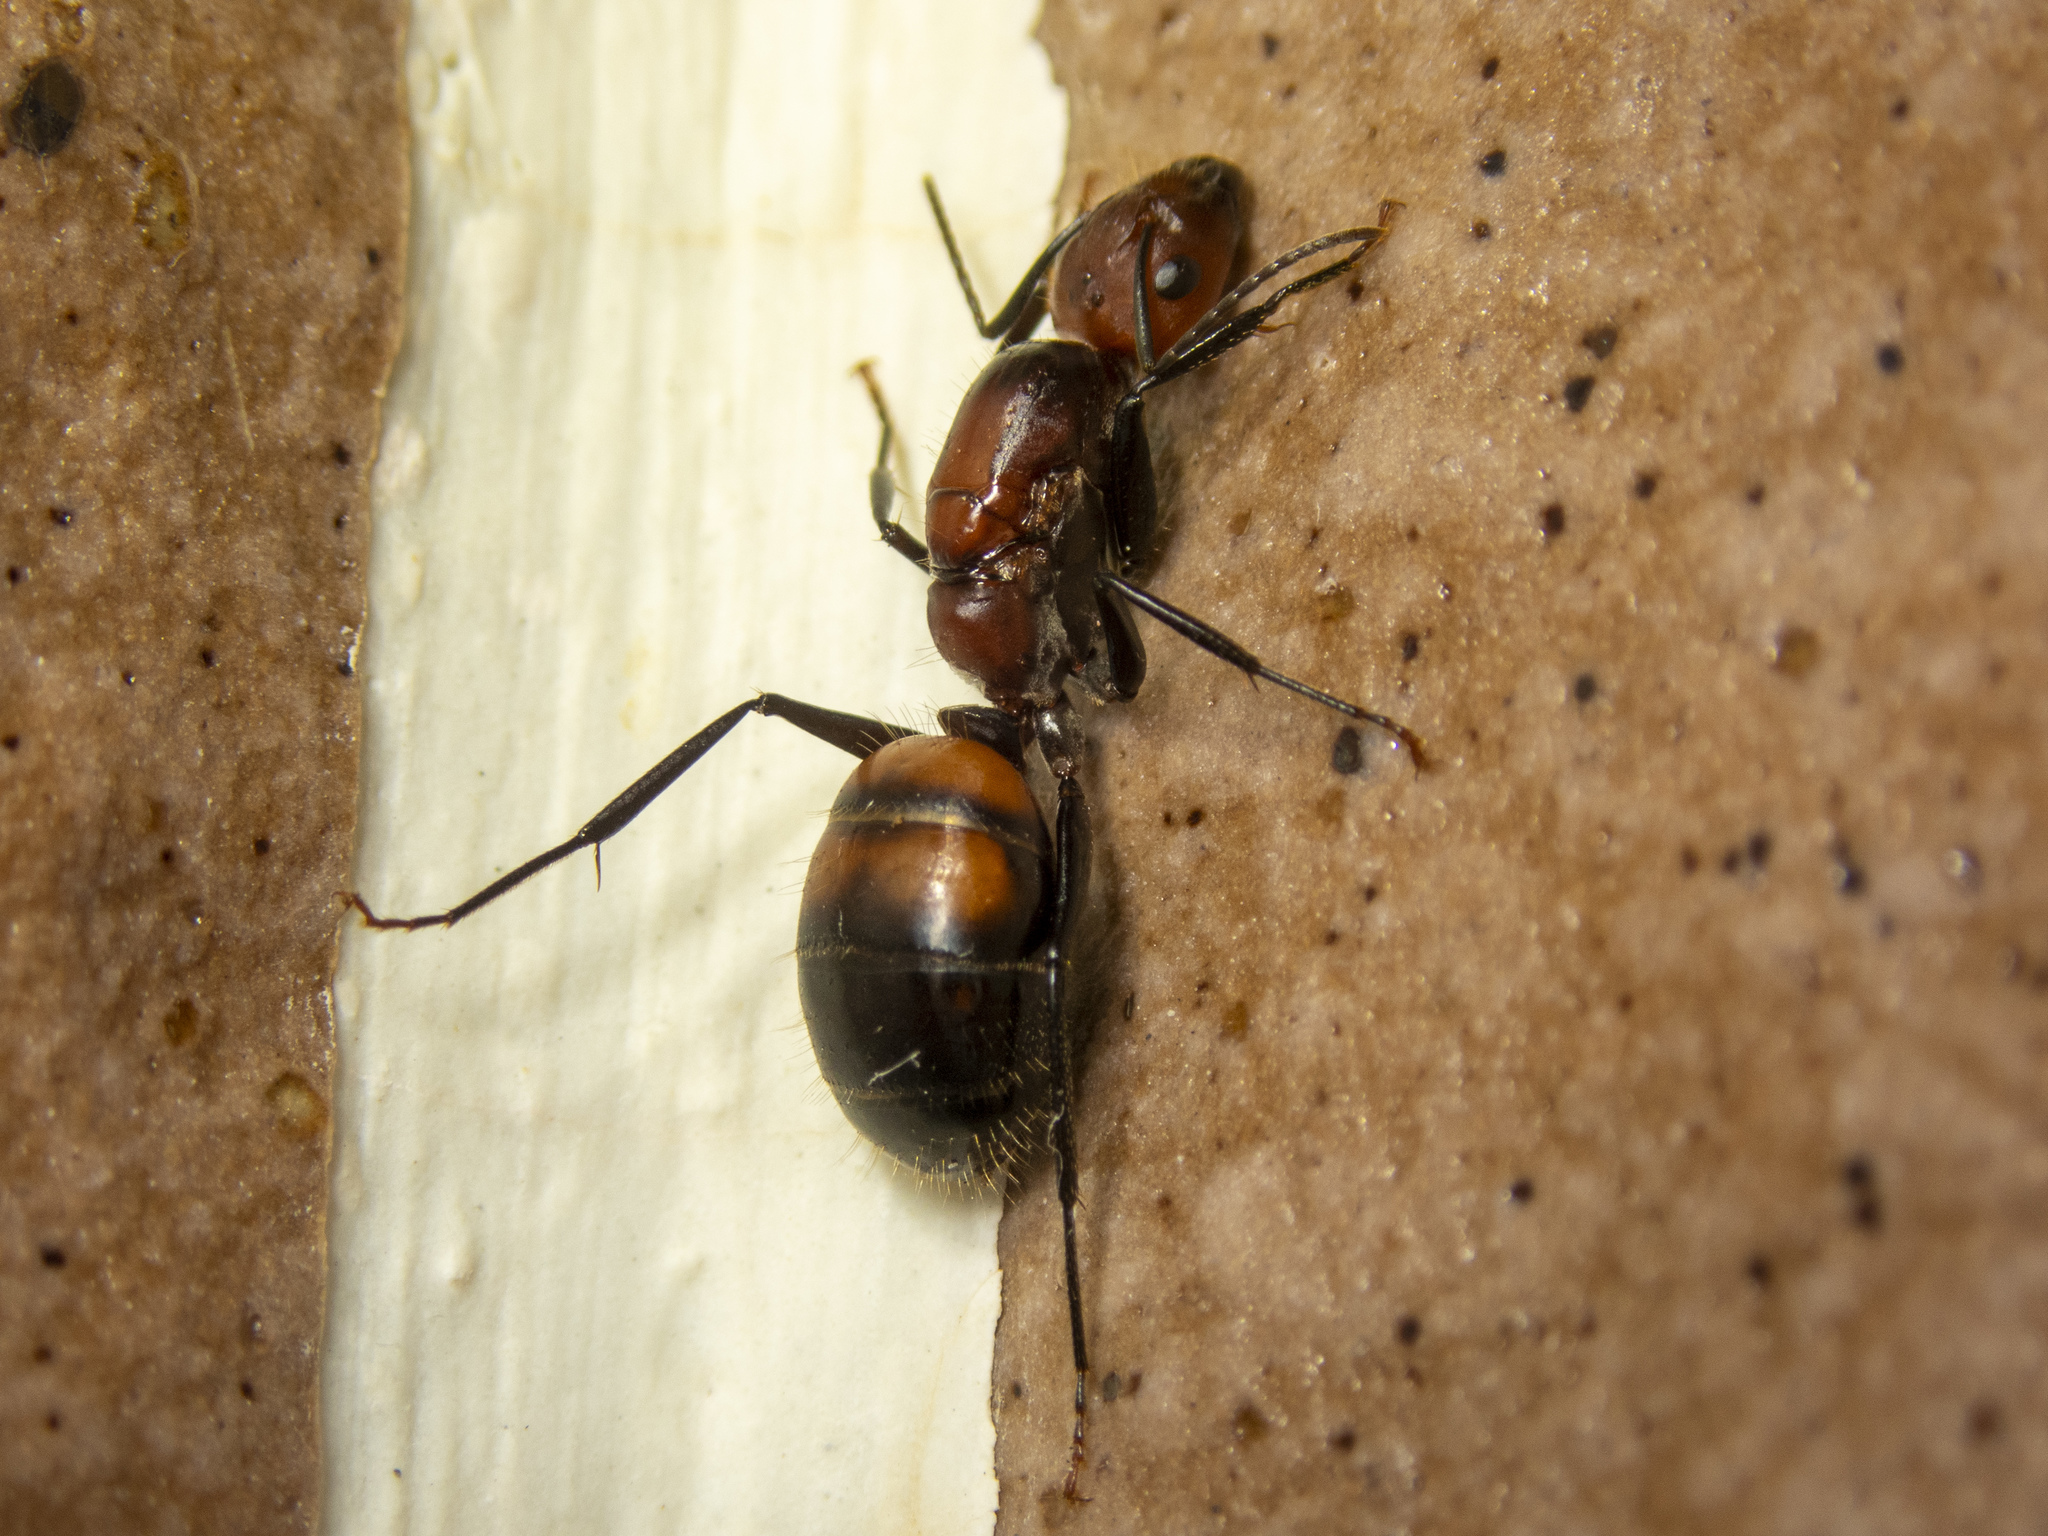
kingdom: Animalia
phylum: Arthropoda
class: Insecta
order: Hymenoptera
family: Formicidae
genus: Camponotus
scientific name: Camponotus nicobarensis
